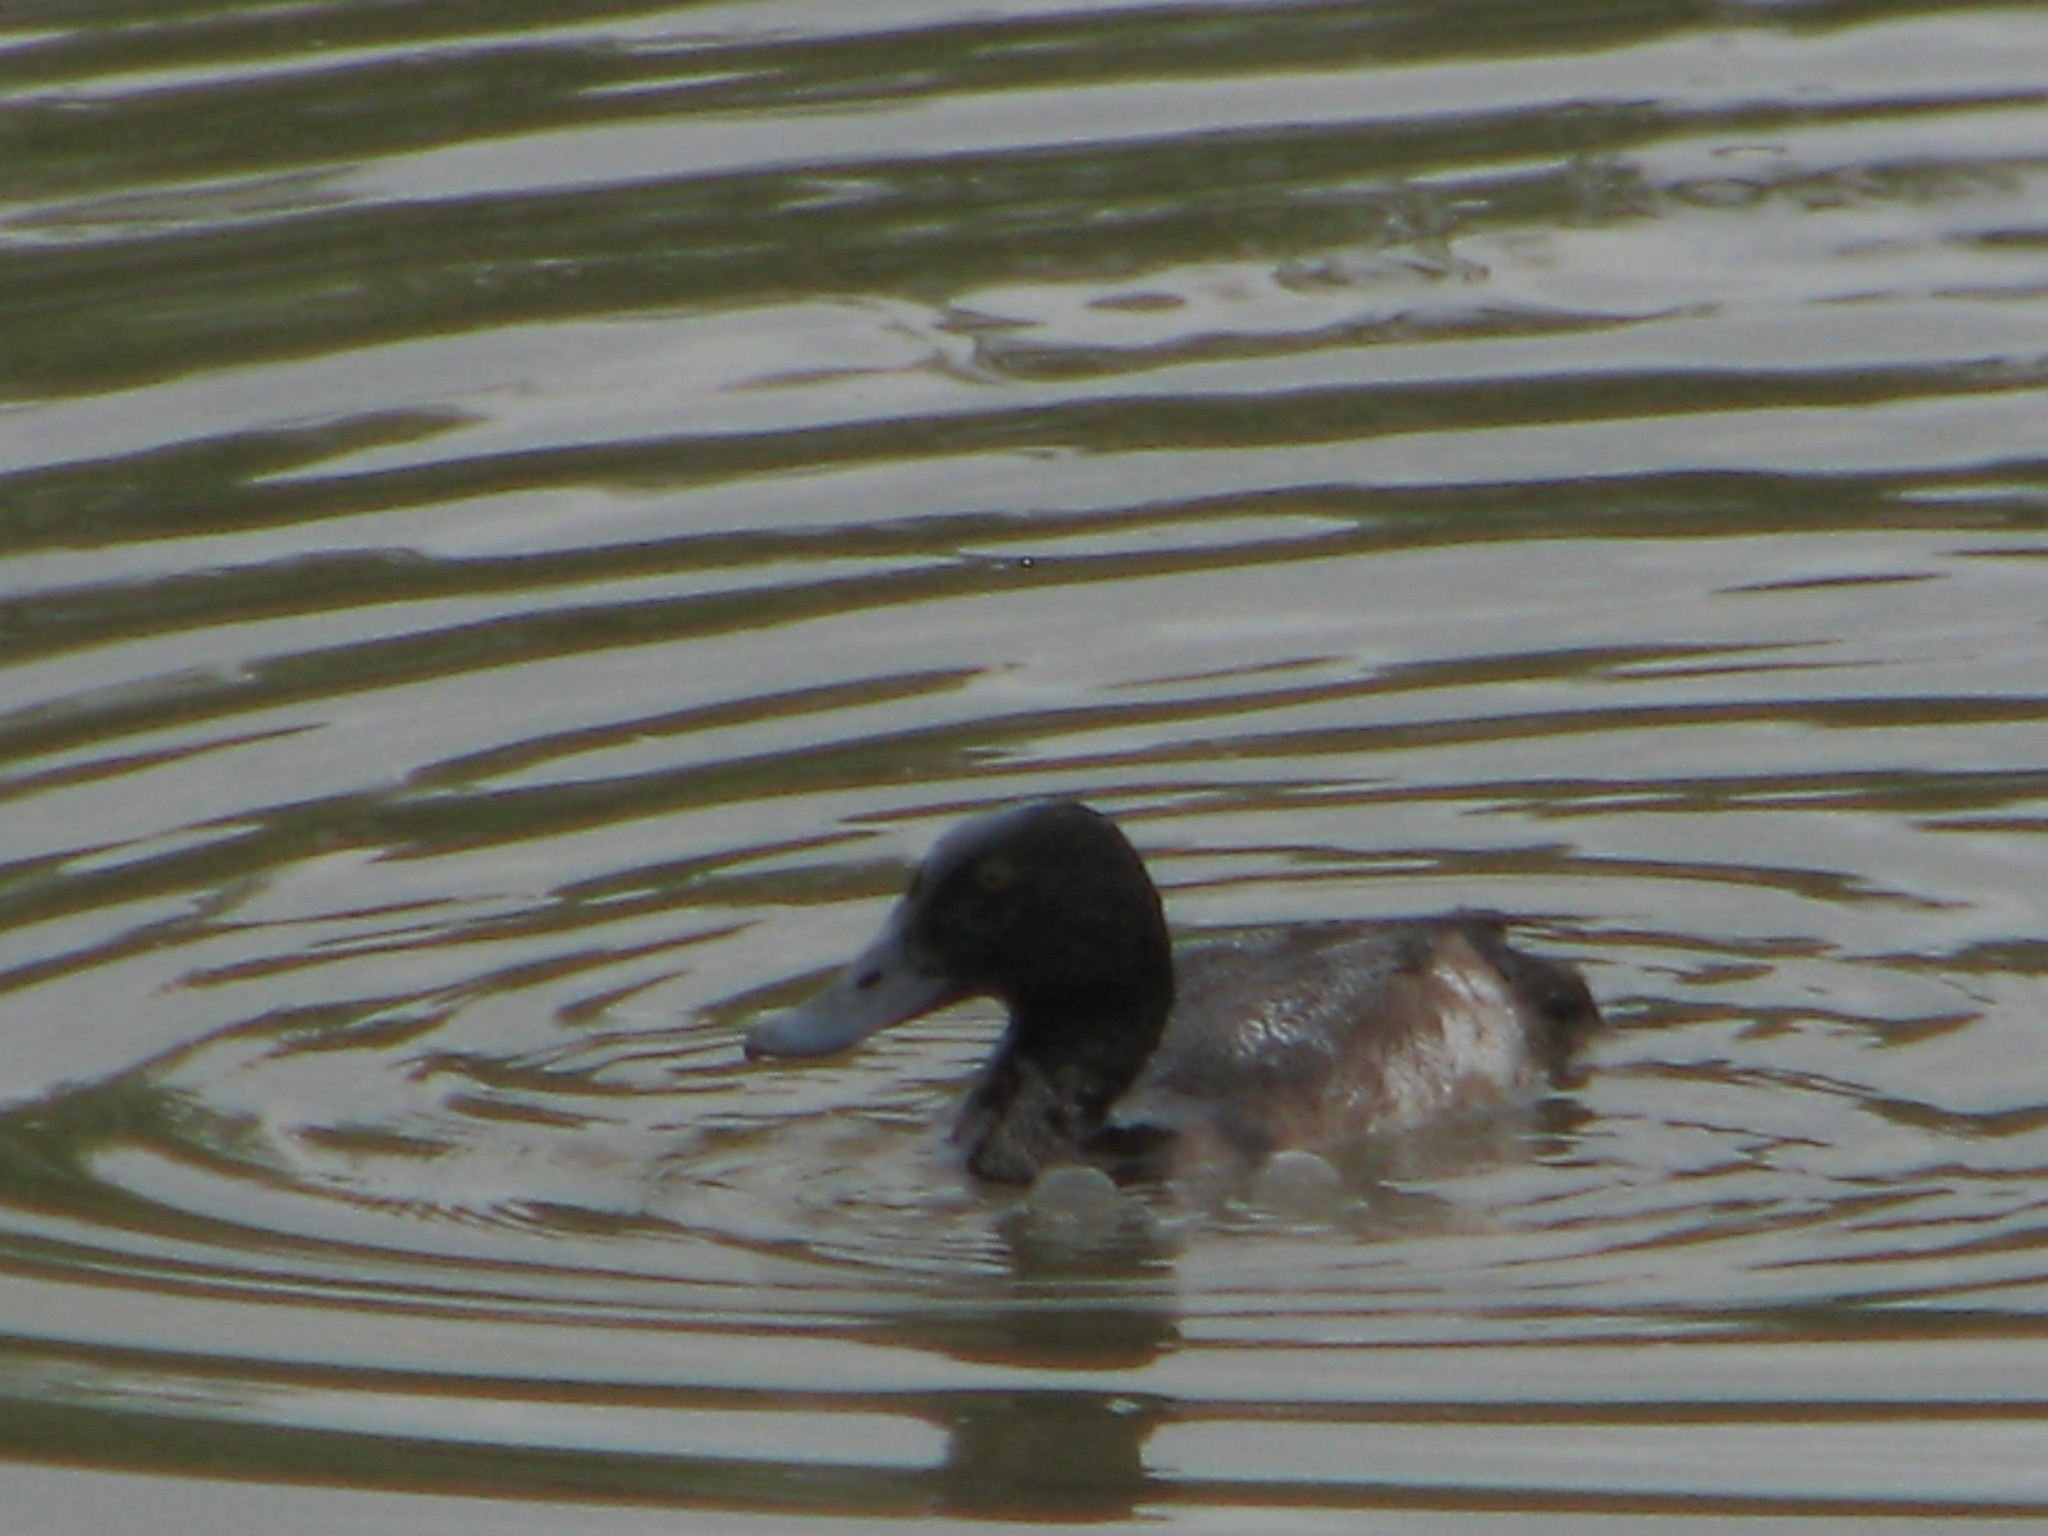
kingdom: Animalia
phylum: Chordata
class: Aves
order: Anseriformes
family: Anatidae
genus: Aythya
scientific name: Aythya marila
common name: Greater scaup
